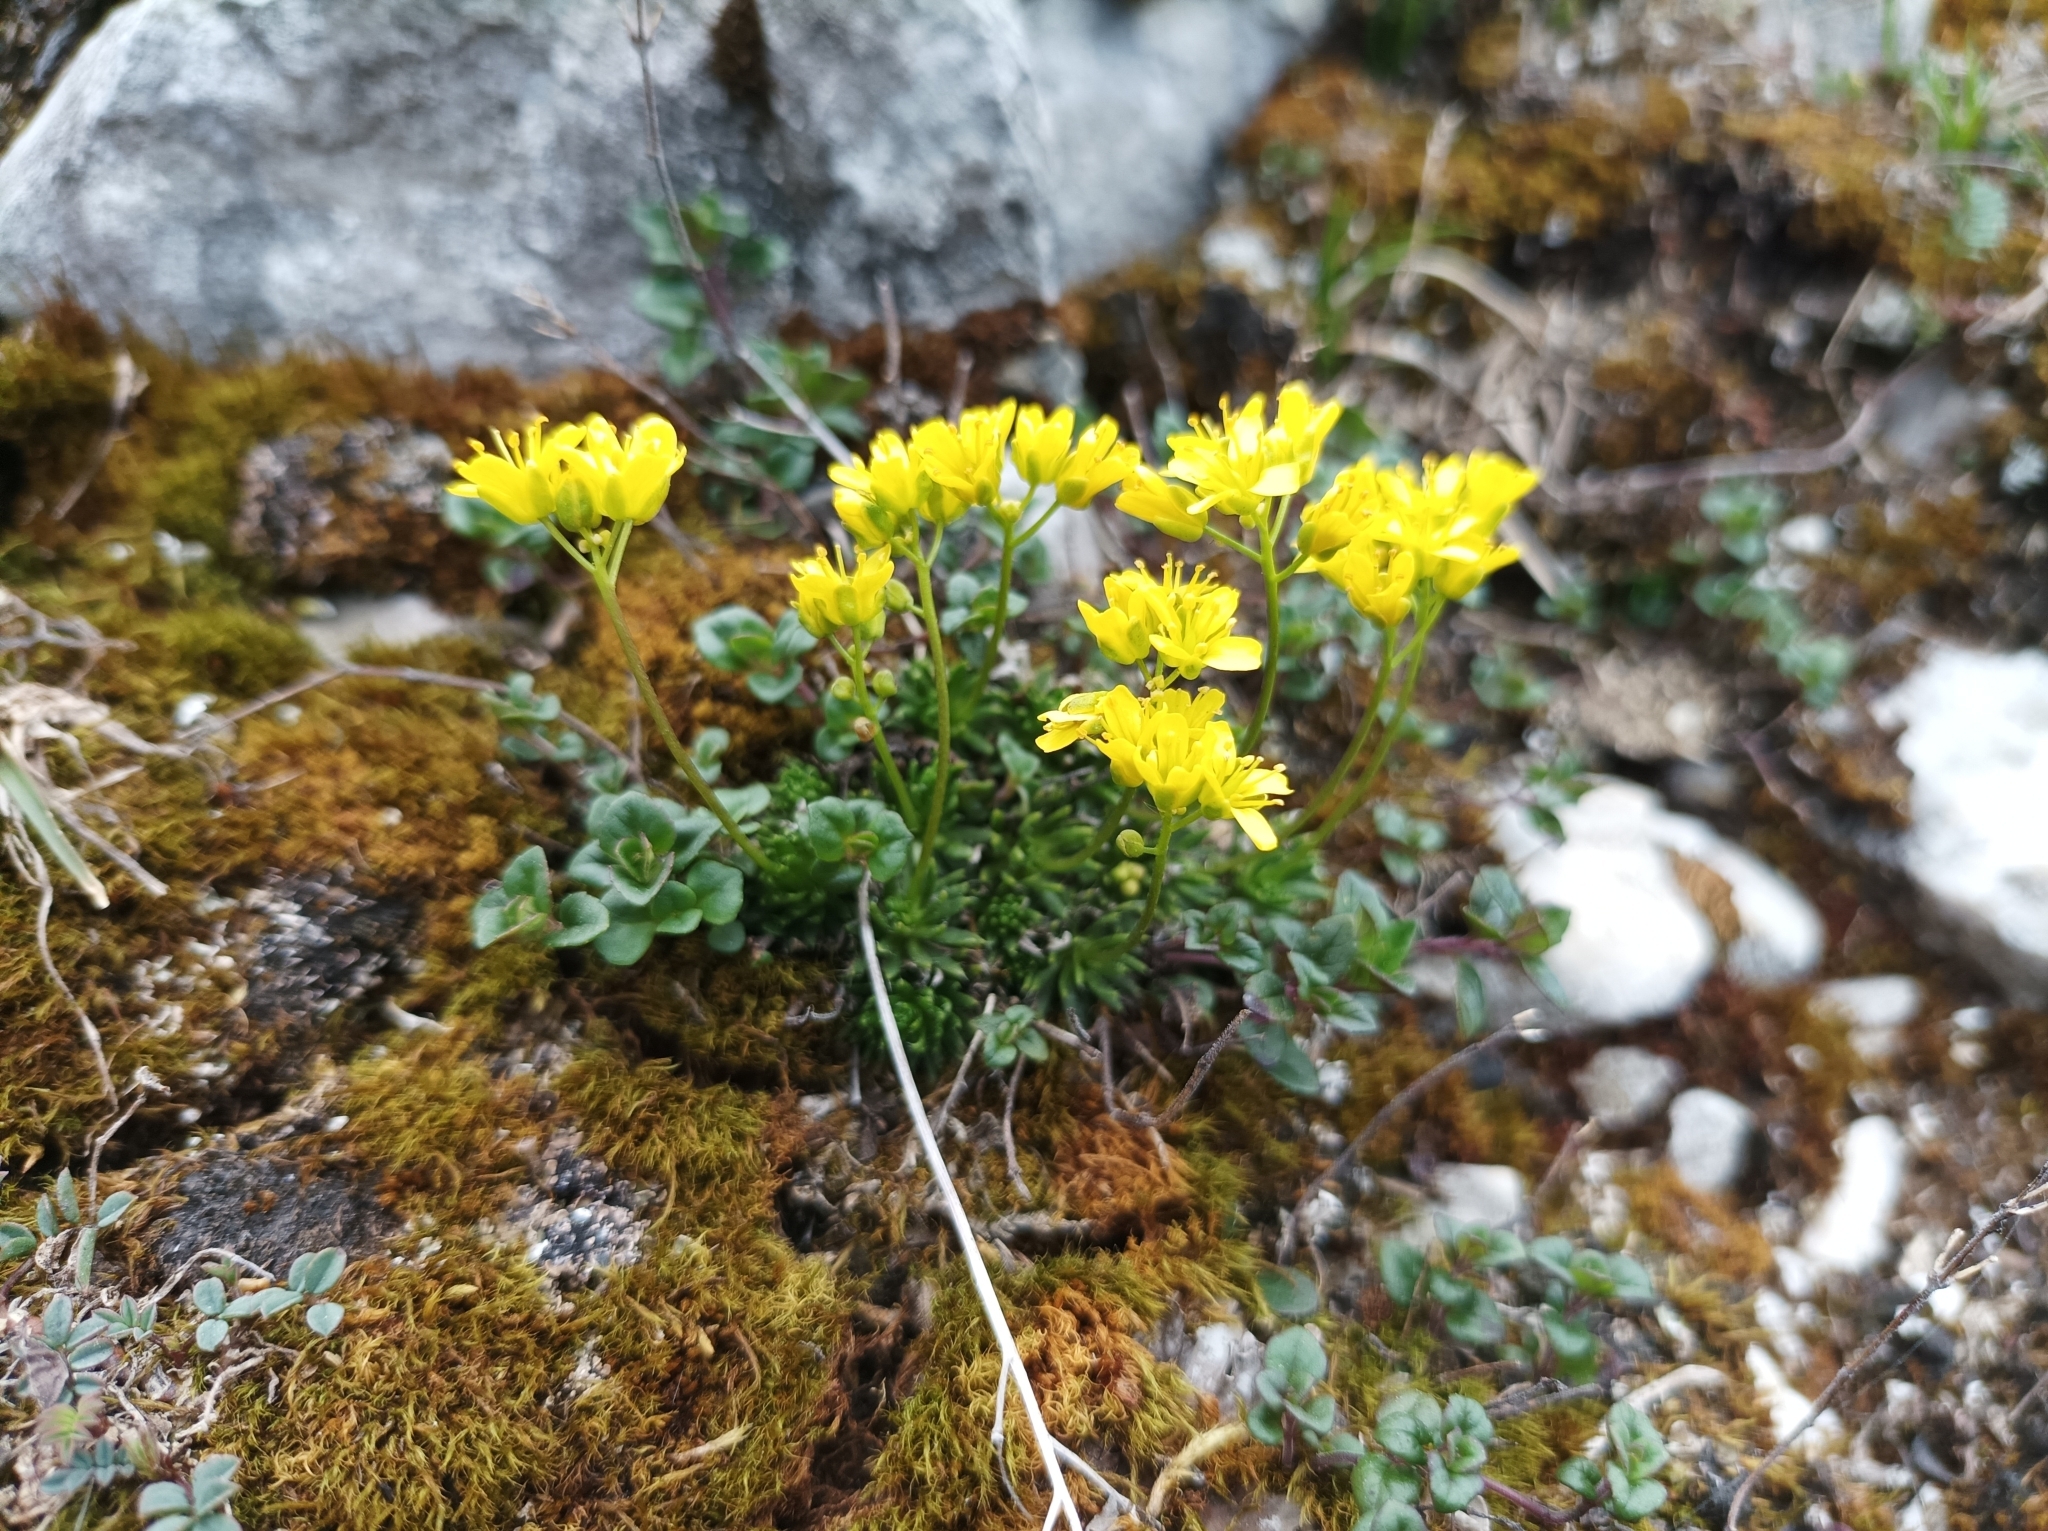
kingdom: Plantae
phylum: Tracheophyta
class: Magnoliopsida
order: Brassicales
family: Brassicaceae
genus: Draba
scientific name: Draba aizoides
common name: Yellow whitlowgrass
